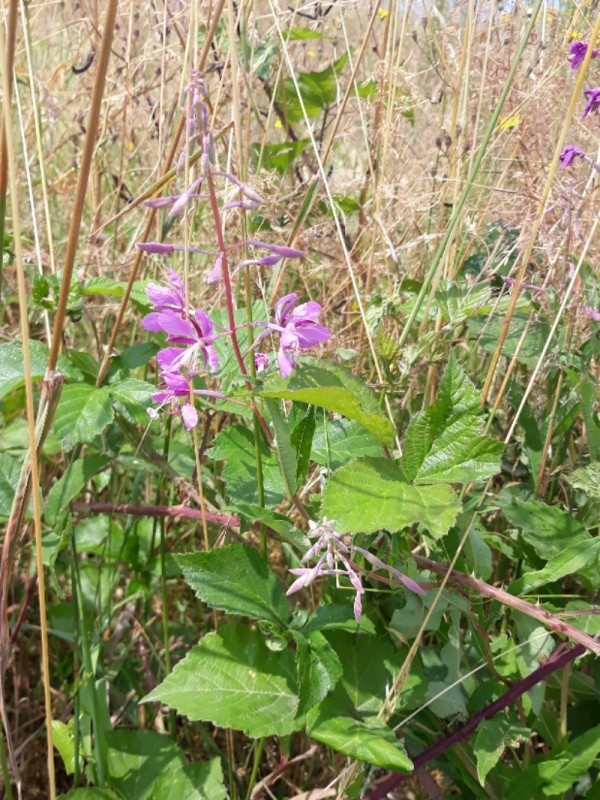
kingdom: Plantae
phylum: Tracheophyta
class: Magnoliopsida
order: Myrtales
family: Onagraceae
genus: Chamaenerion
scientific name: Chamaenerion angustifolium
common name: Fireweed
